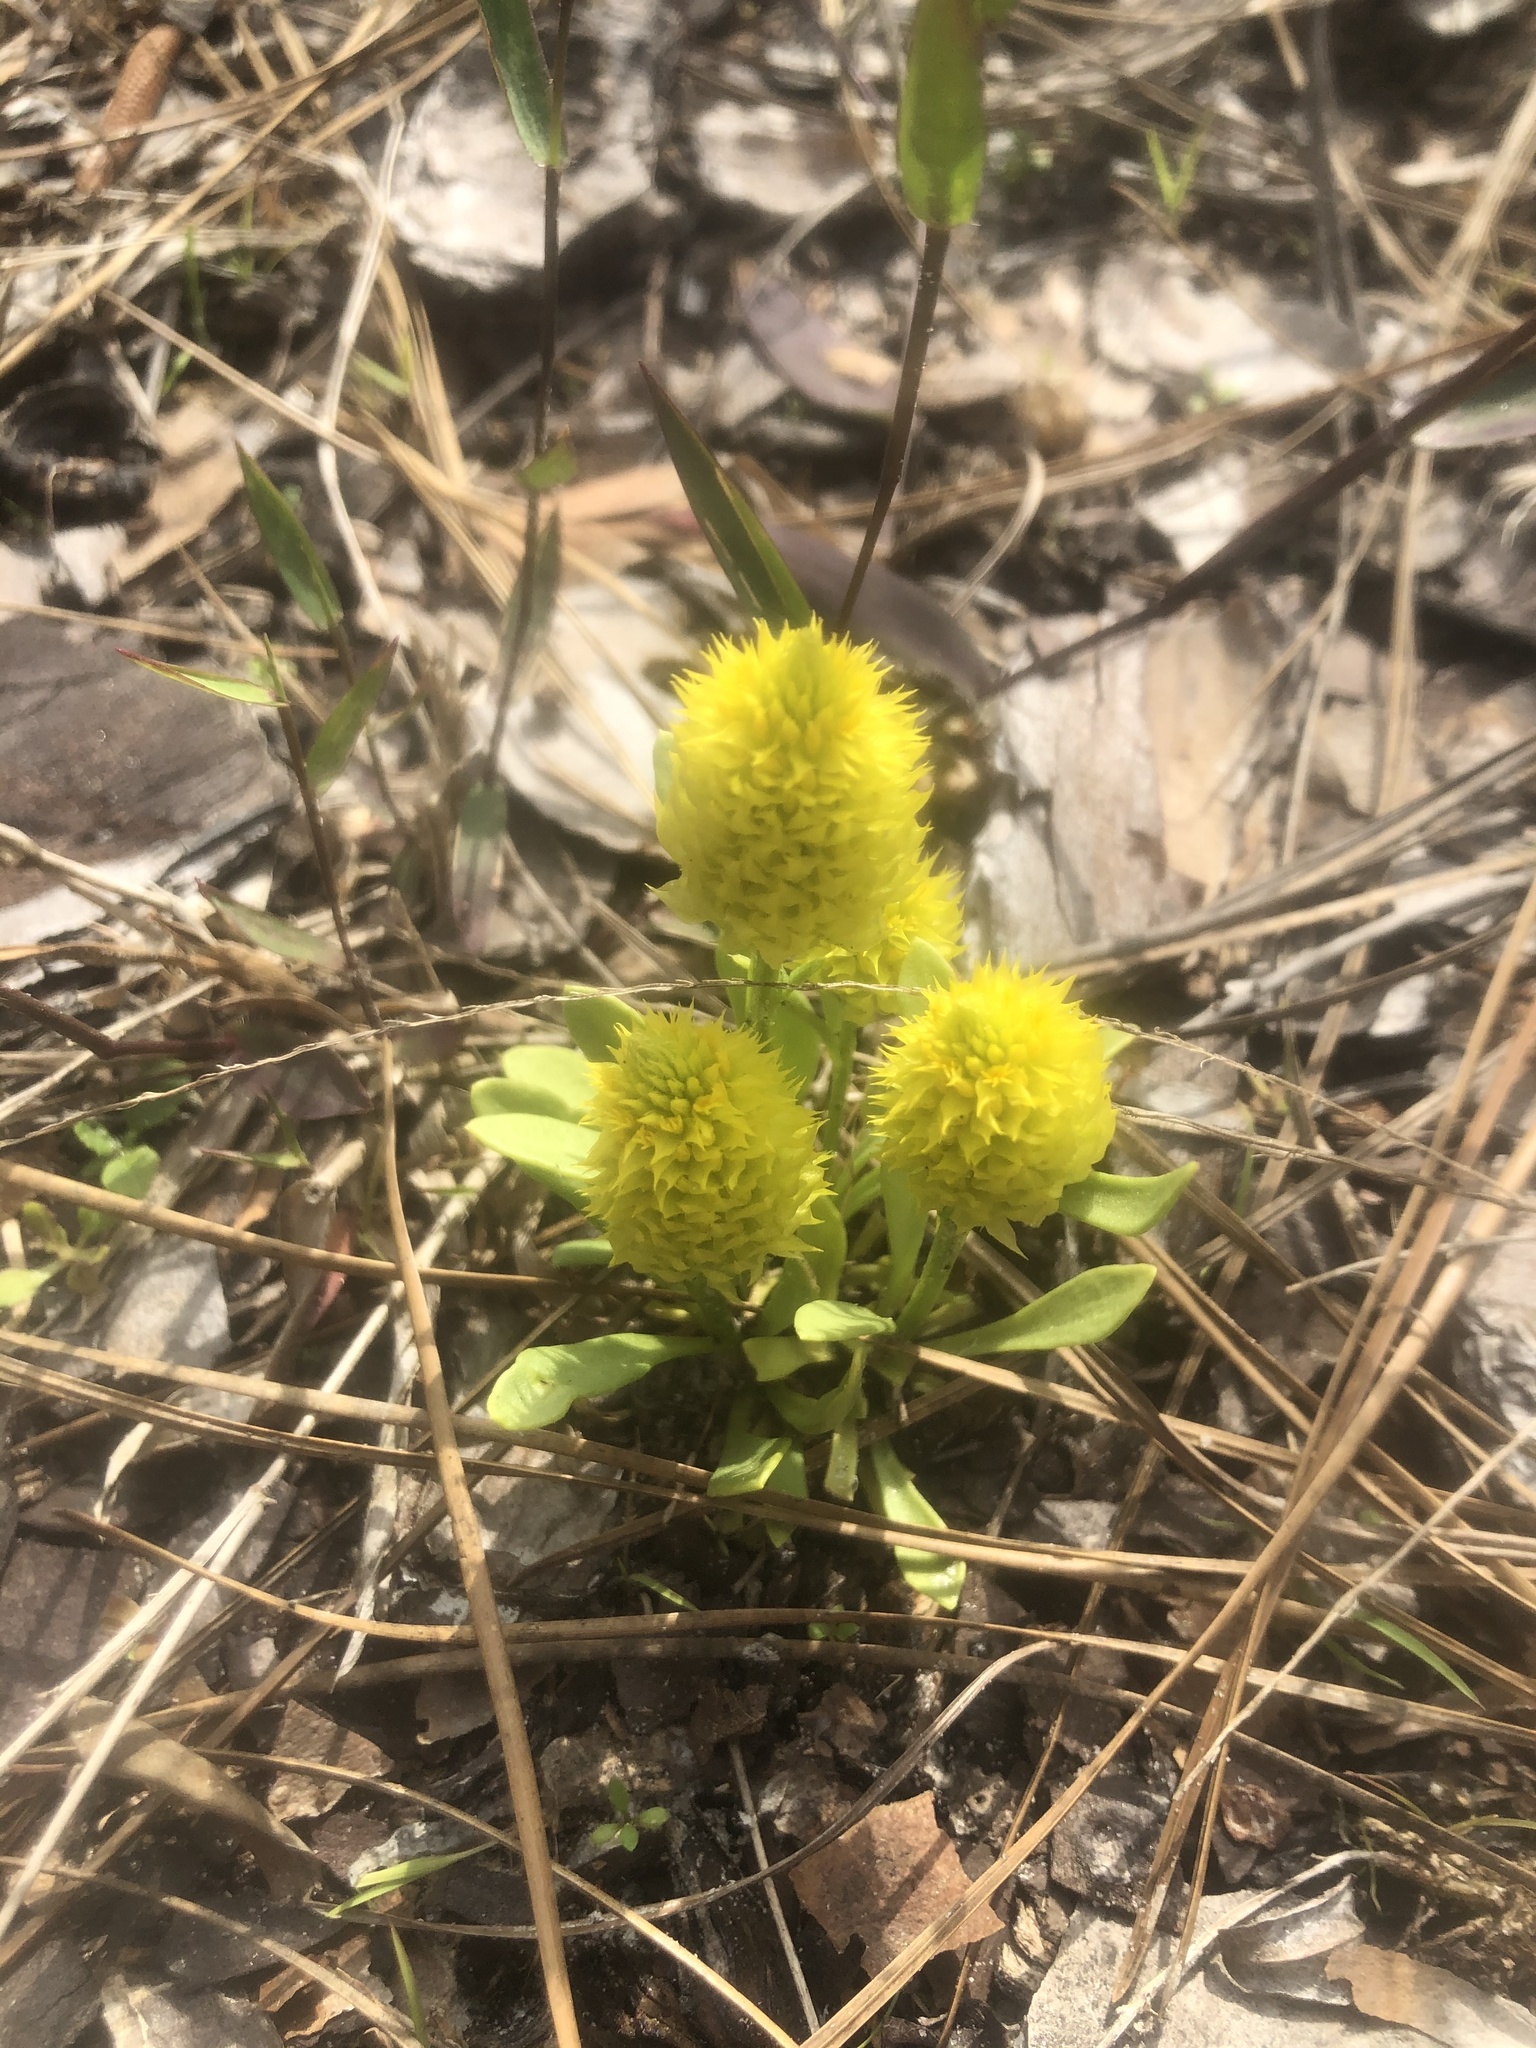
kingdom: Plantae
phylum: Tracheophyta
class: Magnoliopsida
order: Fabales
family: Polygalaceae
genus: Polygala
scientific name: Polygala nana
